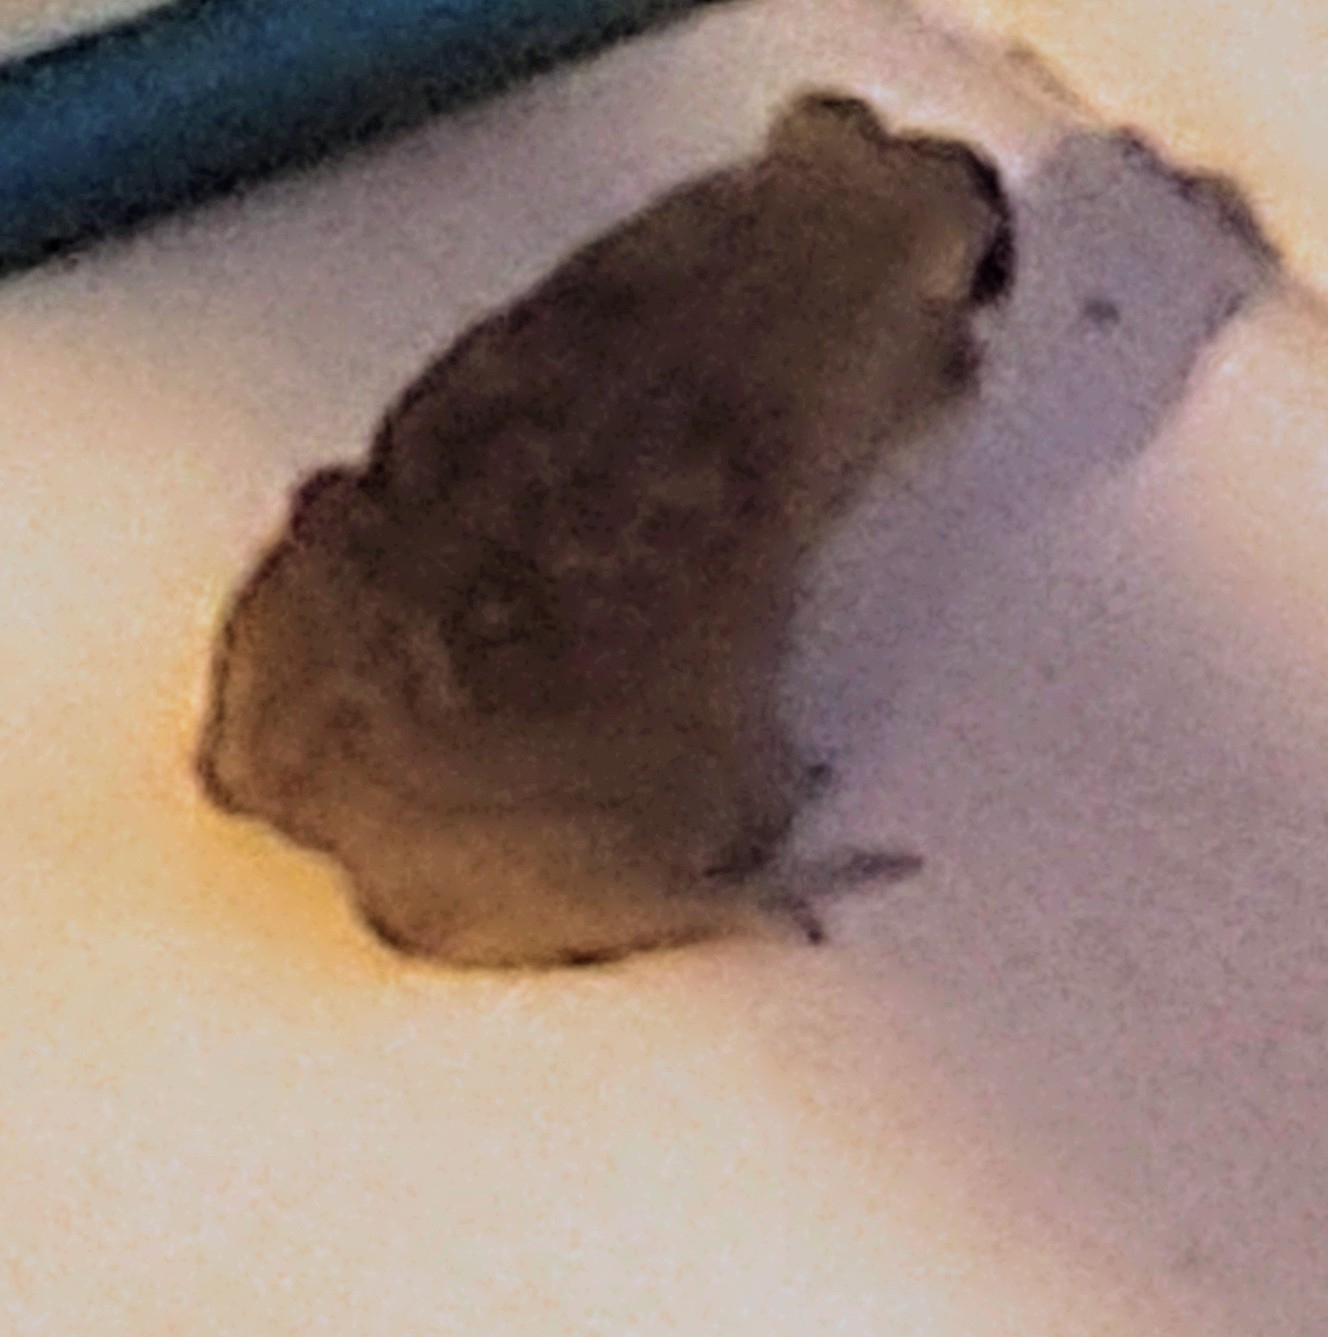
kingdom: Animalia
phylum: Chordata
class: Amphibia
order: Anura
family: Bufonidae
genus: Rhinella
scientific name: Rhinella marina
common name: Cane toad
